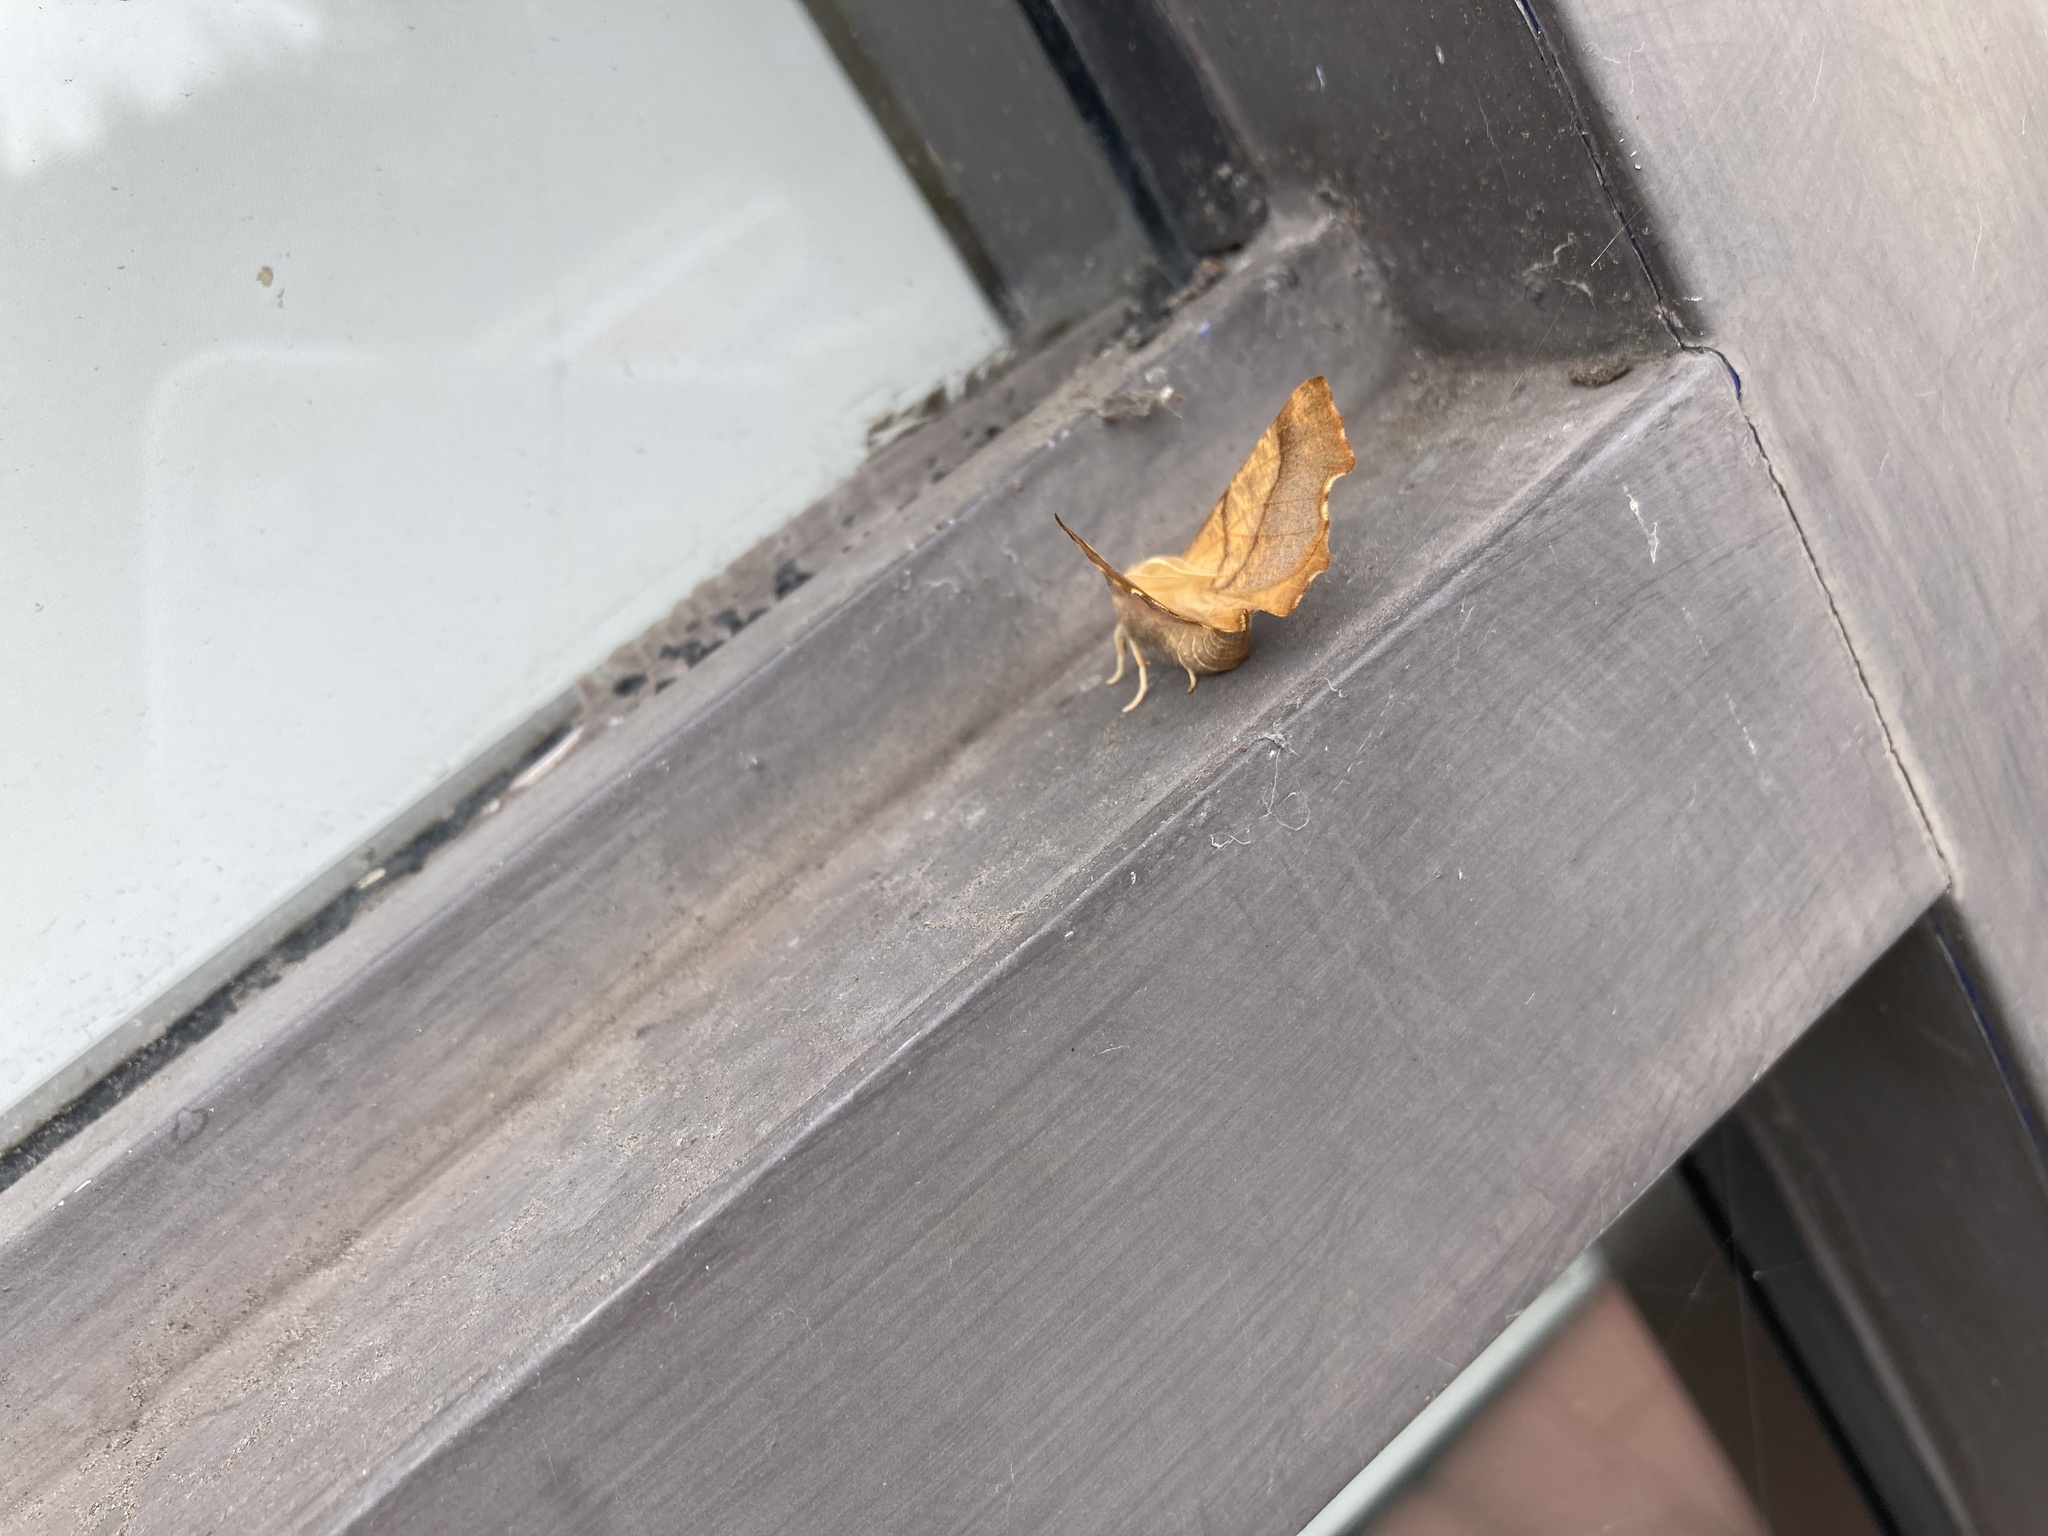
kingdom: Animalia
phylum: Arthropoda
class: Insecta
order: Lepidoptera
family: Geometridae
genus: Ennomos
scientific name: Ennomos fuscantaria
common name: Dusky thorn
